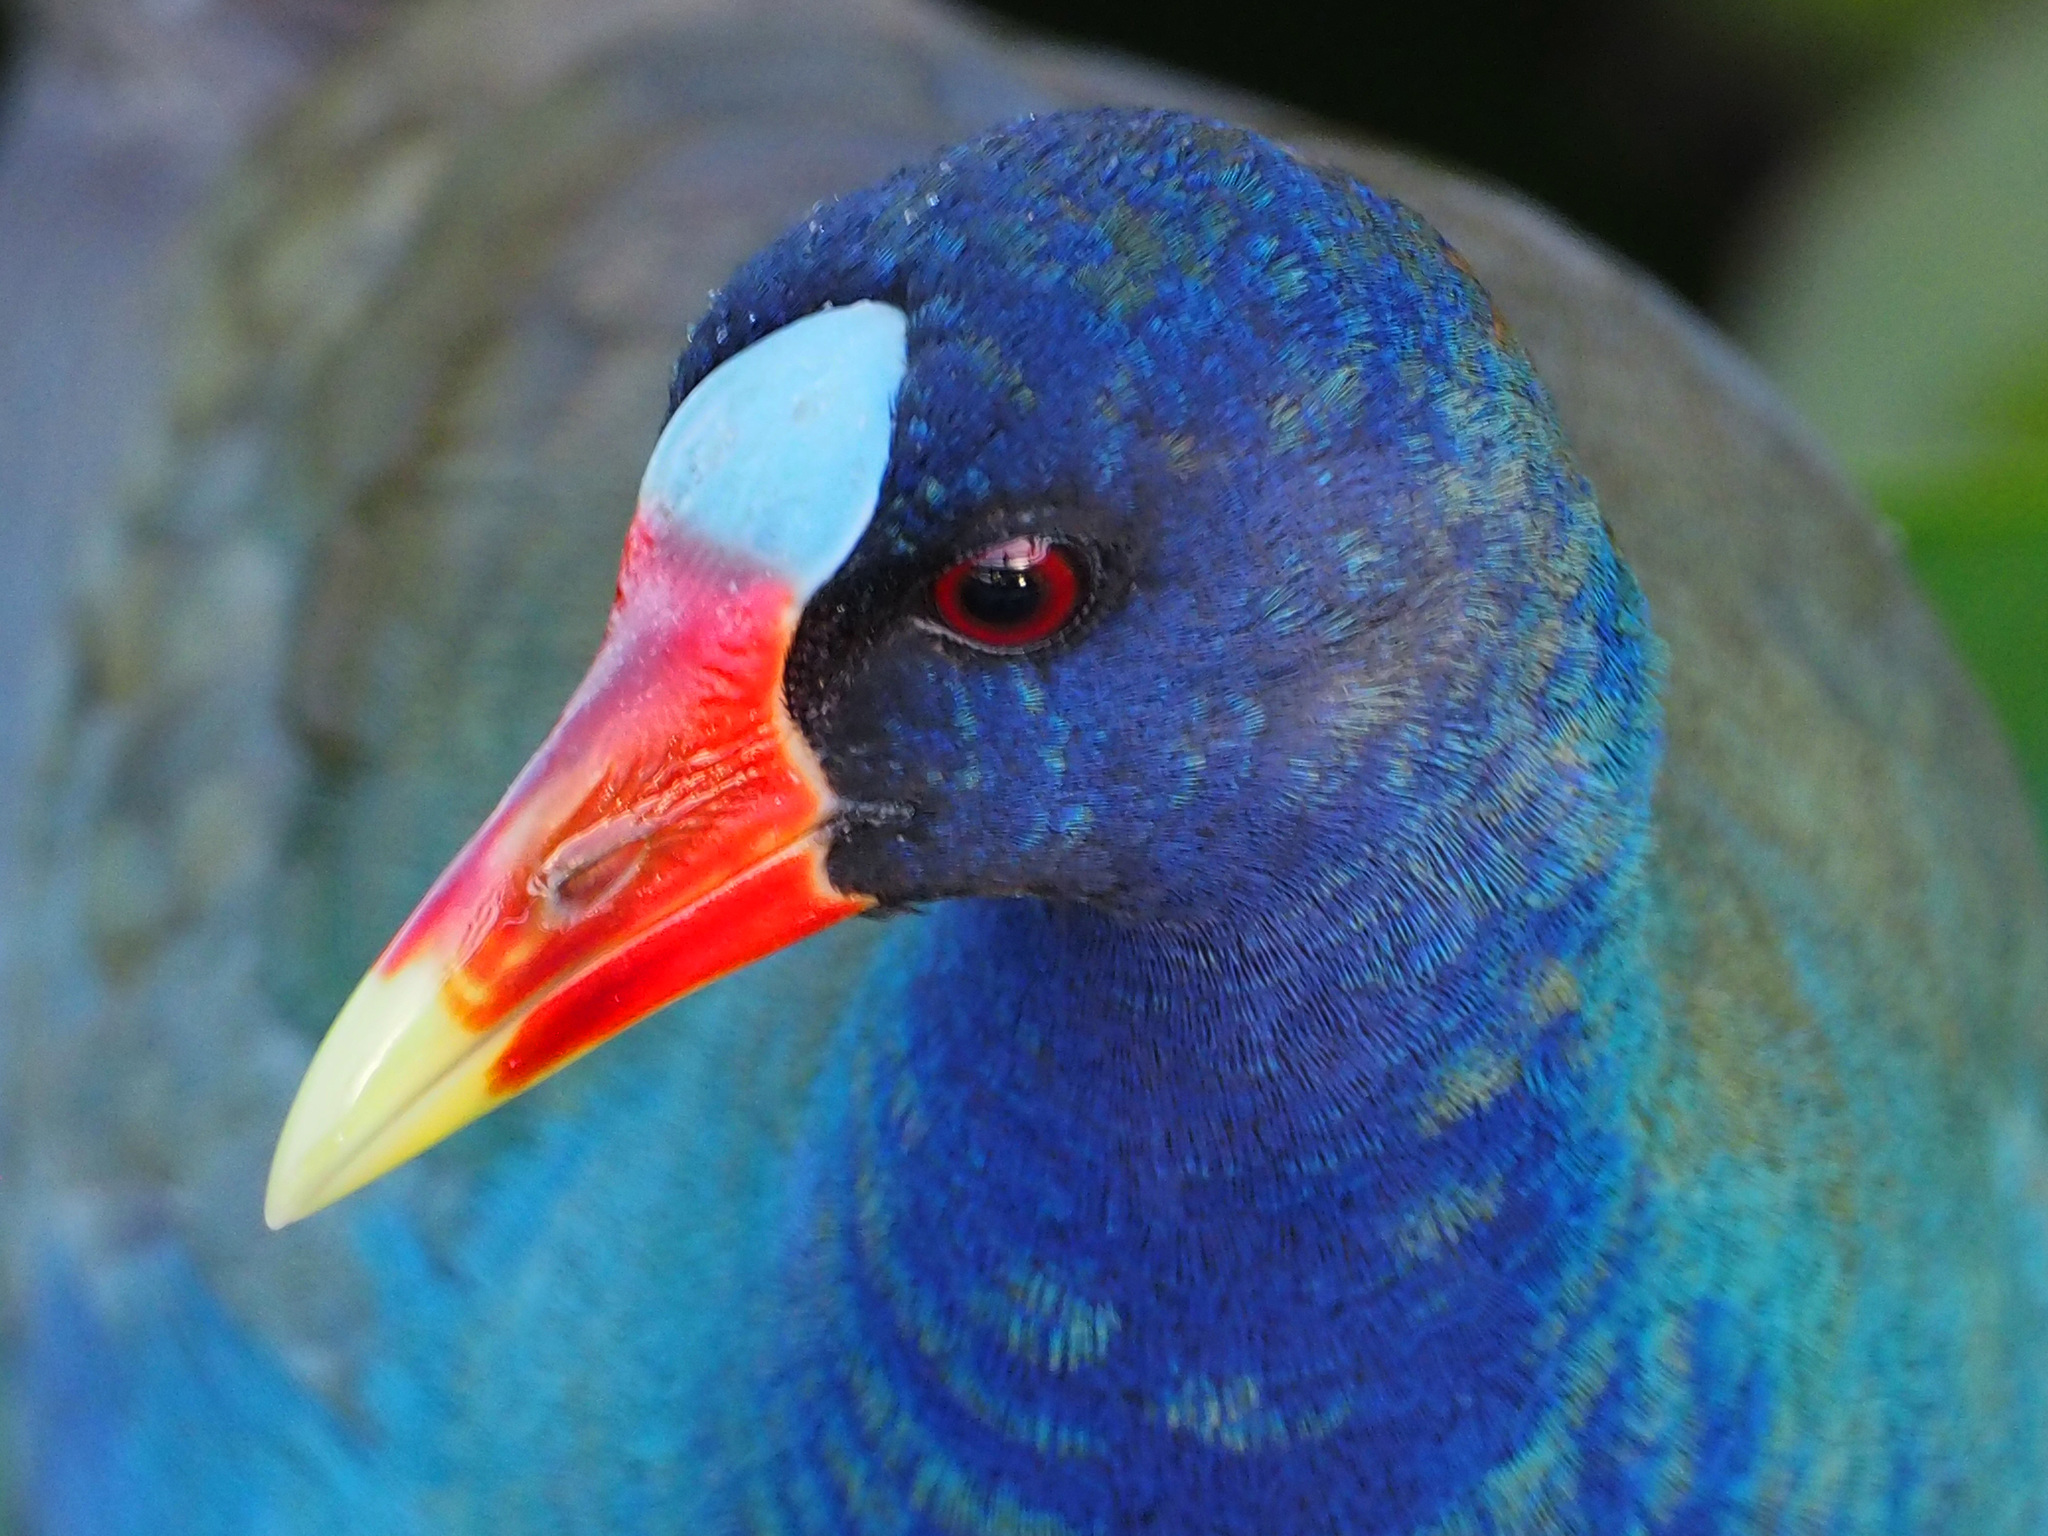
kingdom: Animalia
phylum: Chordata
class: Aves
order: Gruiformes
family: Rallidae
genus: Porphyrio
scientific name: Porphyrio martinica
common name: Purple gallinule
